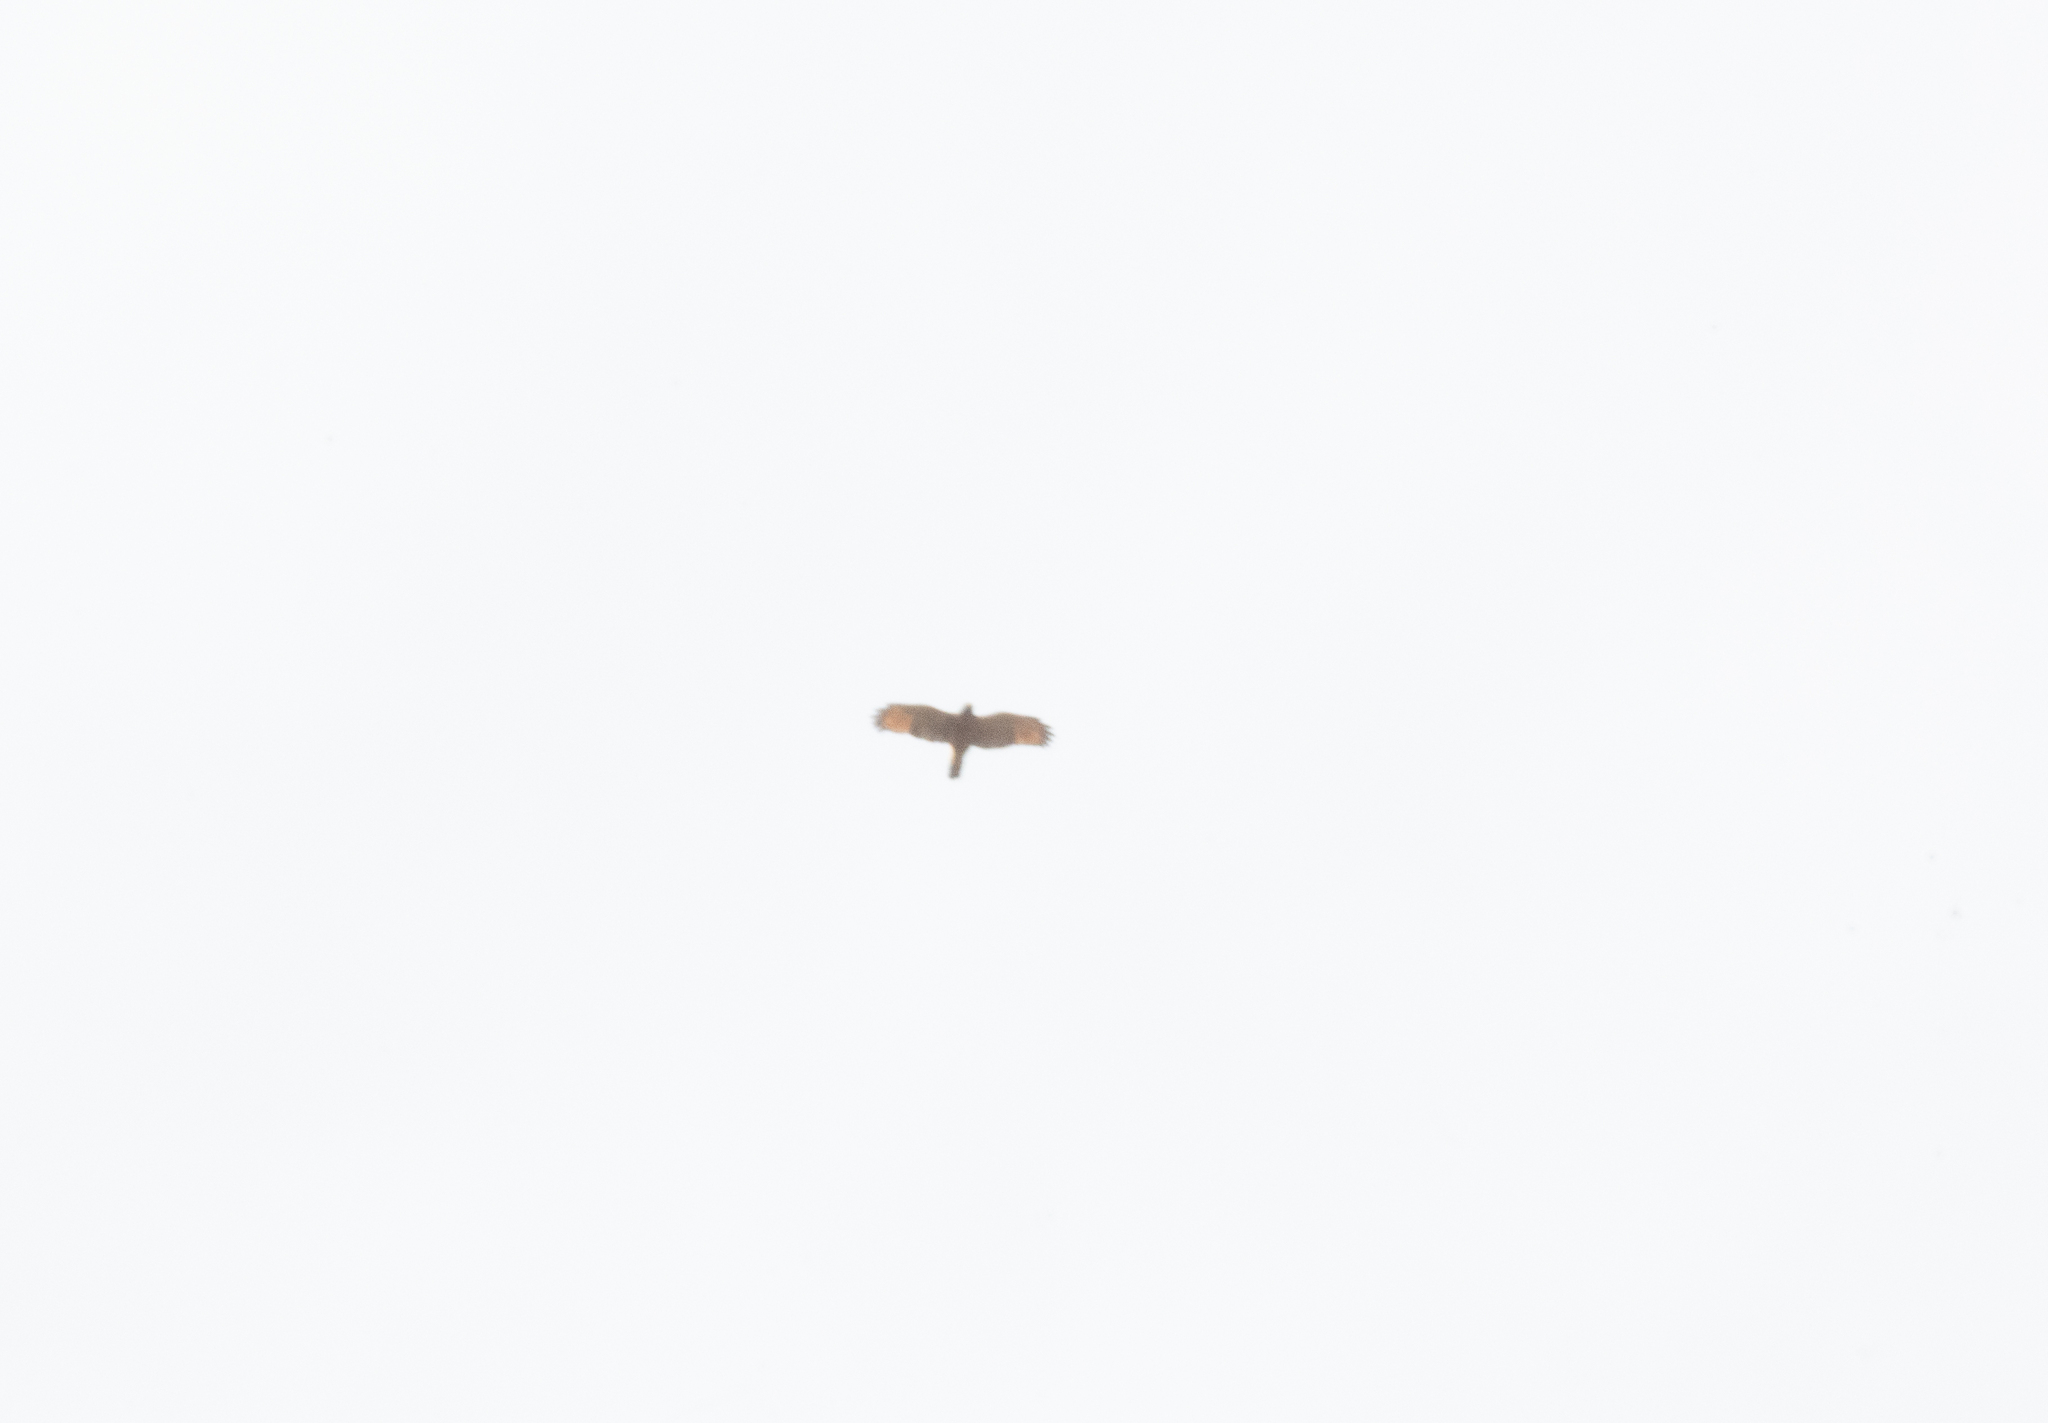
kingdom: Animalia
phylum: Chordata
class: Aves
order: Accipitriformes
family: Accipitridae
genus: Rupornis
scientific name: Rupornis magnirostris
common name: Roadside hawk
